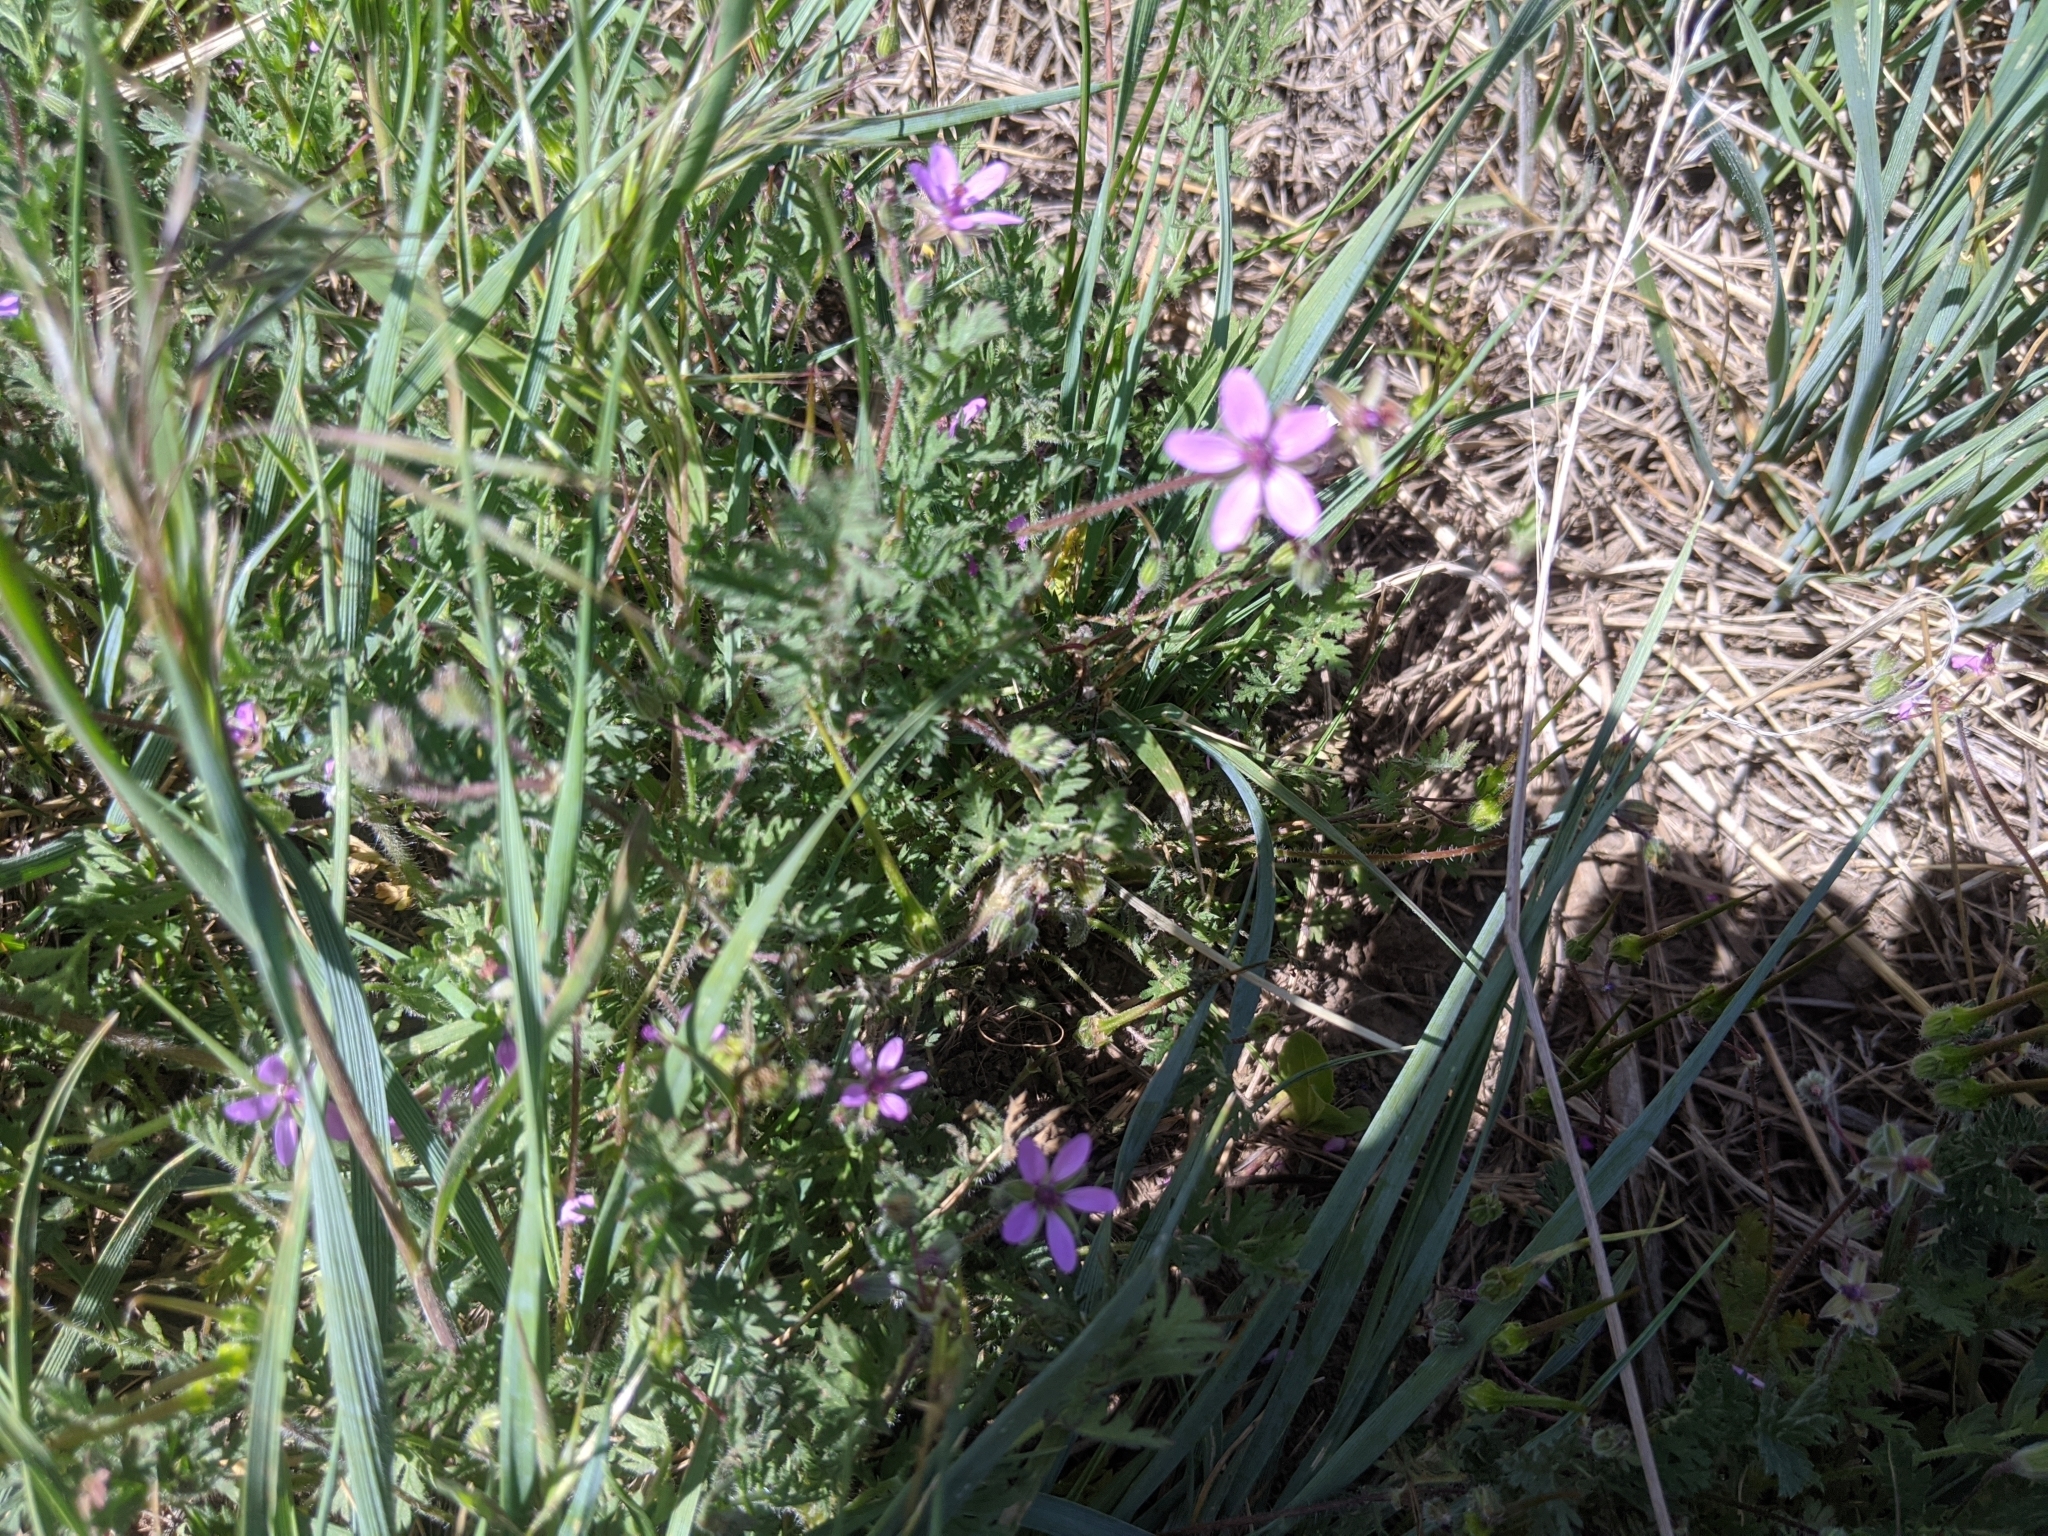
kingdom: Plantae
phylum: Tracheophyta
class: Magnoliopsida
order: Geraniales
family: Geraniaceae
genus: Erodium
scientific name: Erodium cicutarium
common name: Common stork's-bill
